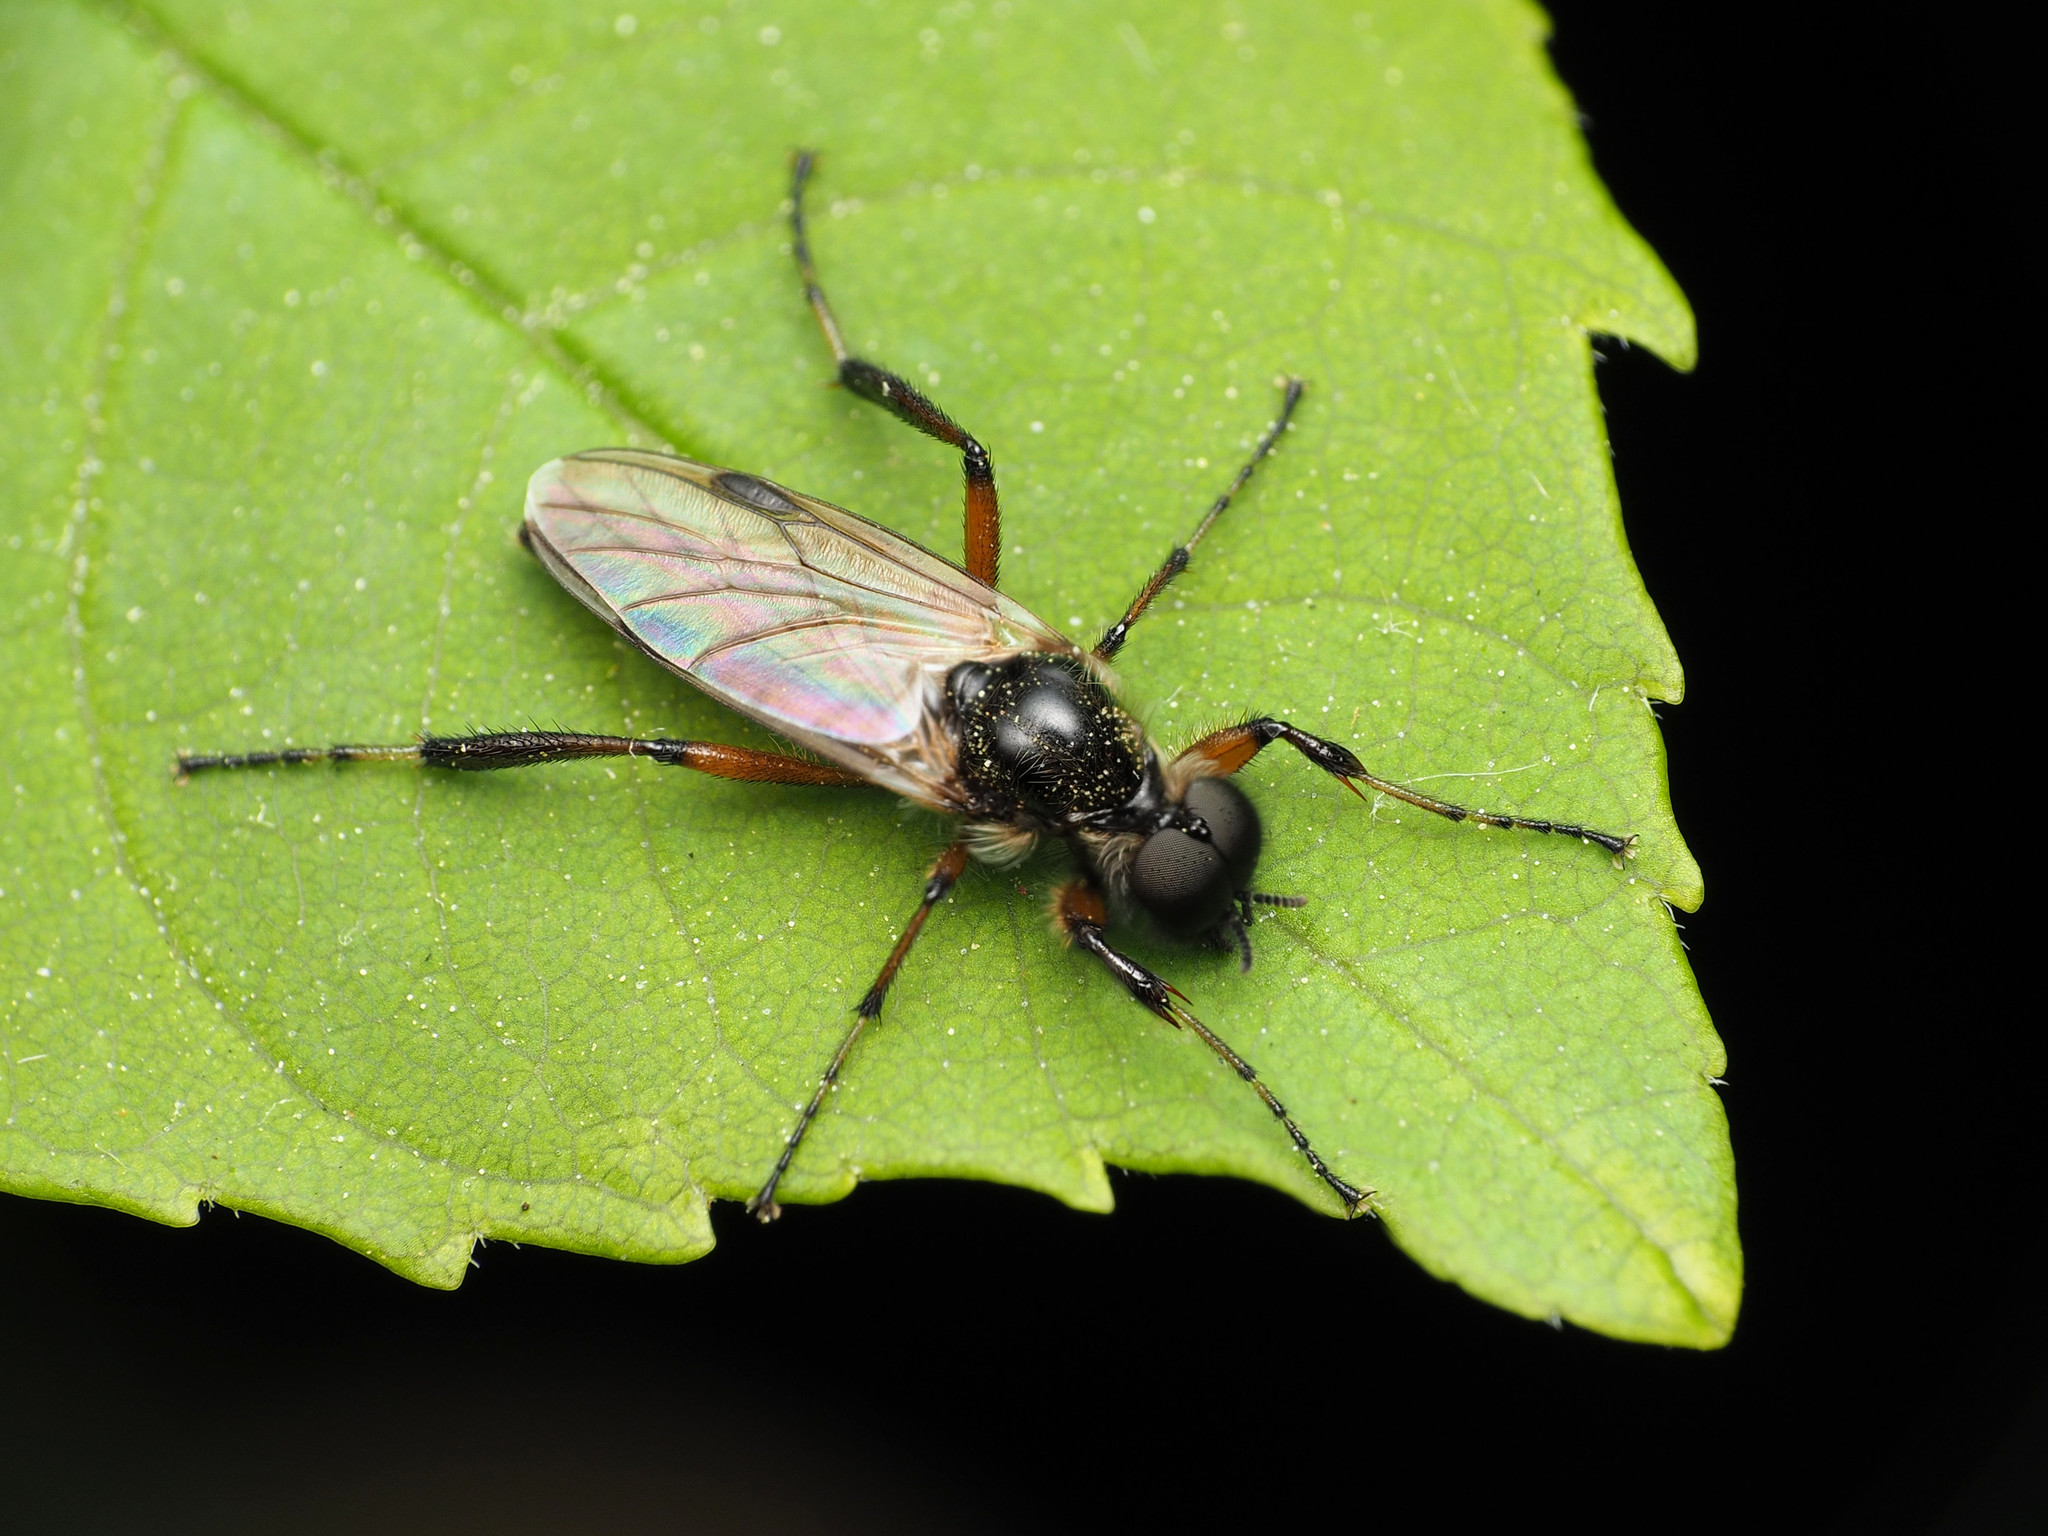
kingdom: Animalia
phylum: Arthropoda
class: Insecta
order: Diptera
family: Bibionidae
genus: Bibio
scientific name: Bibio articulatus
